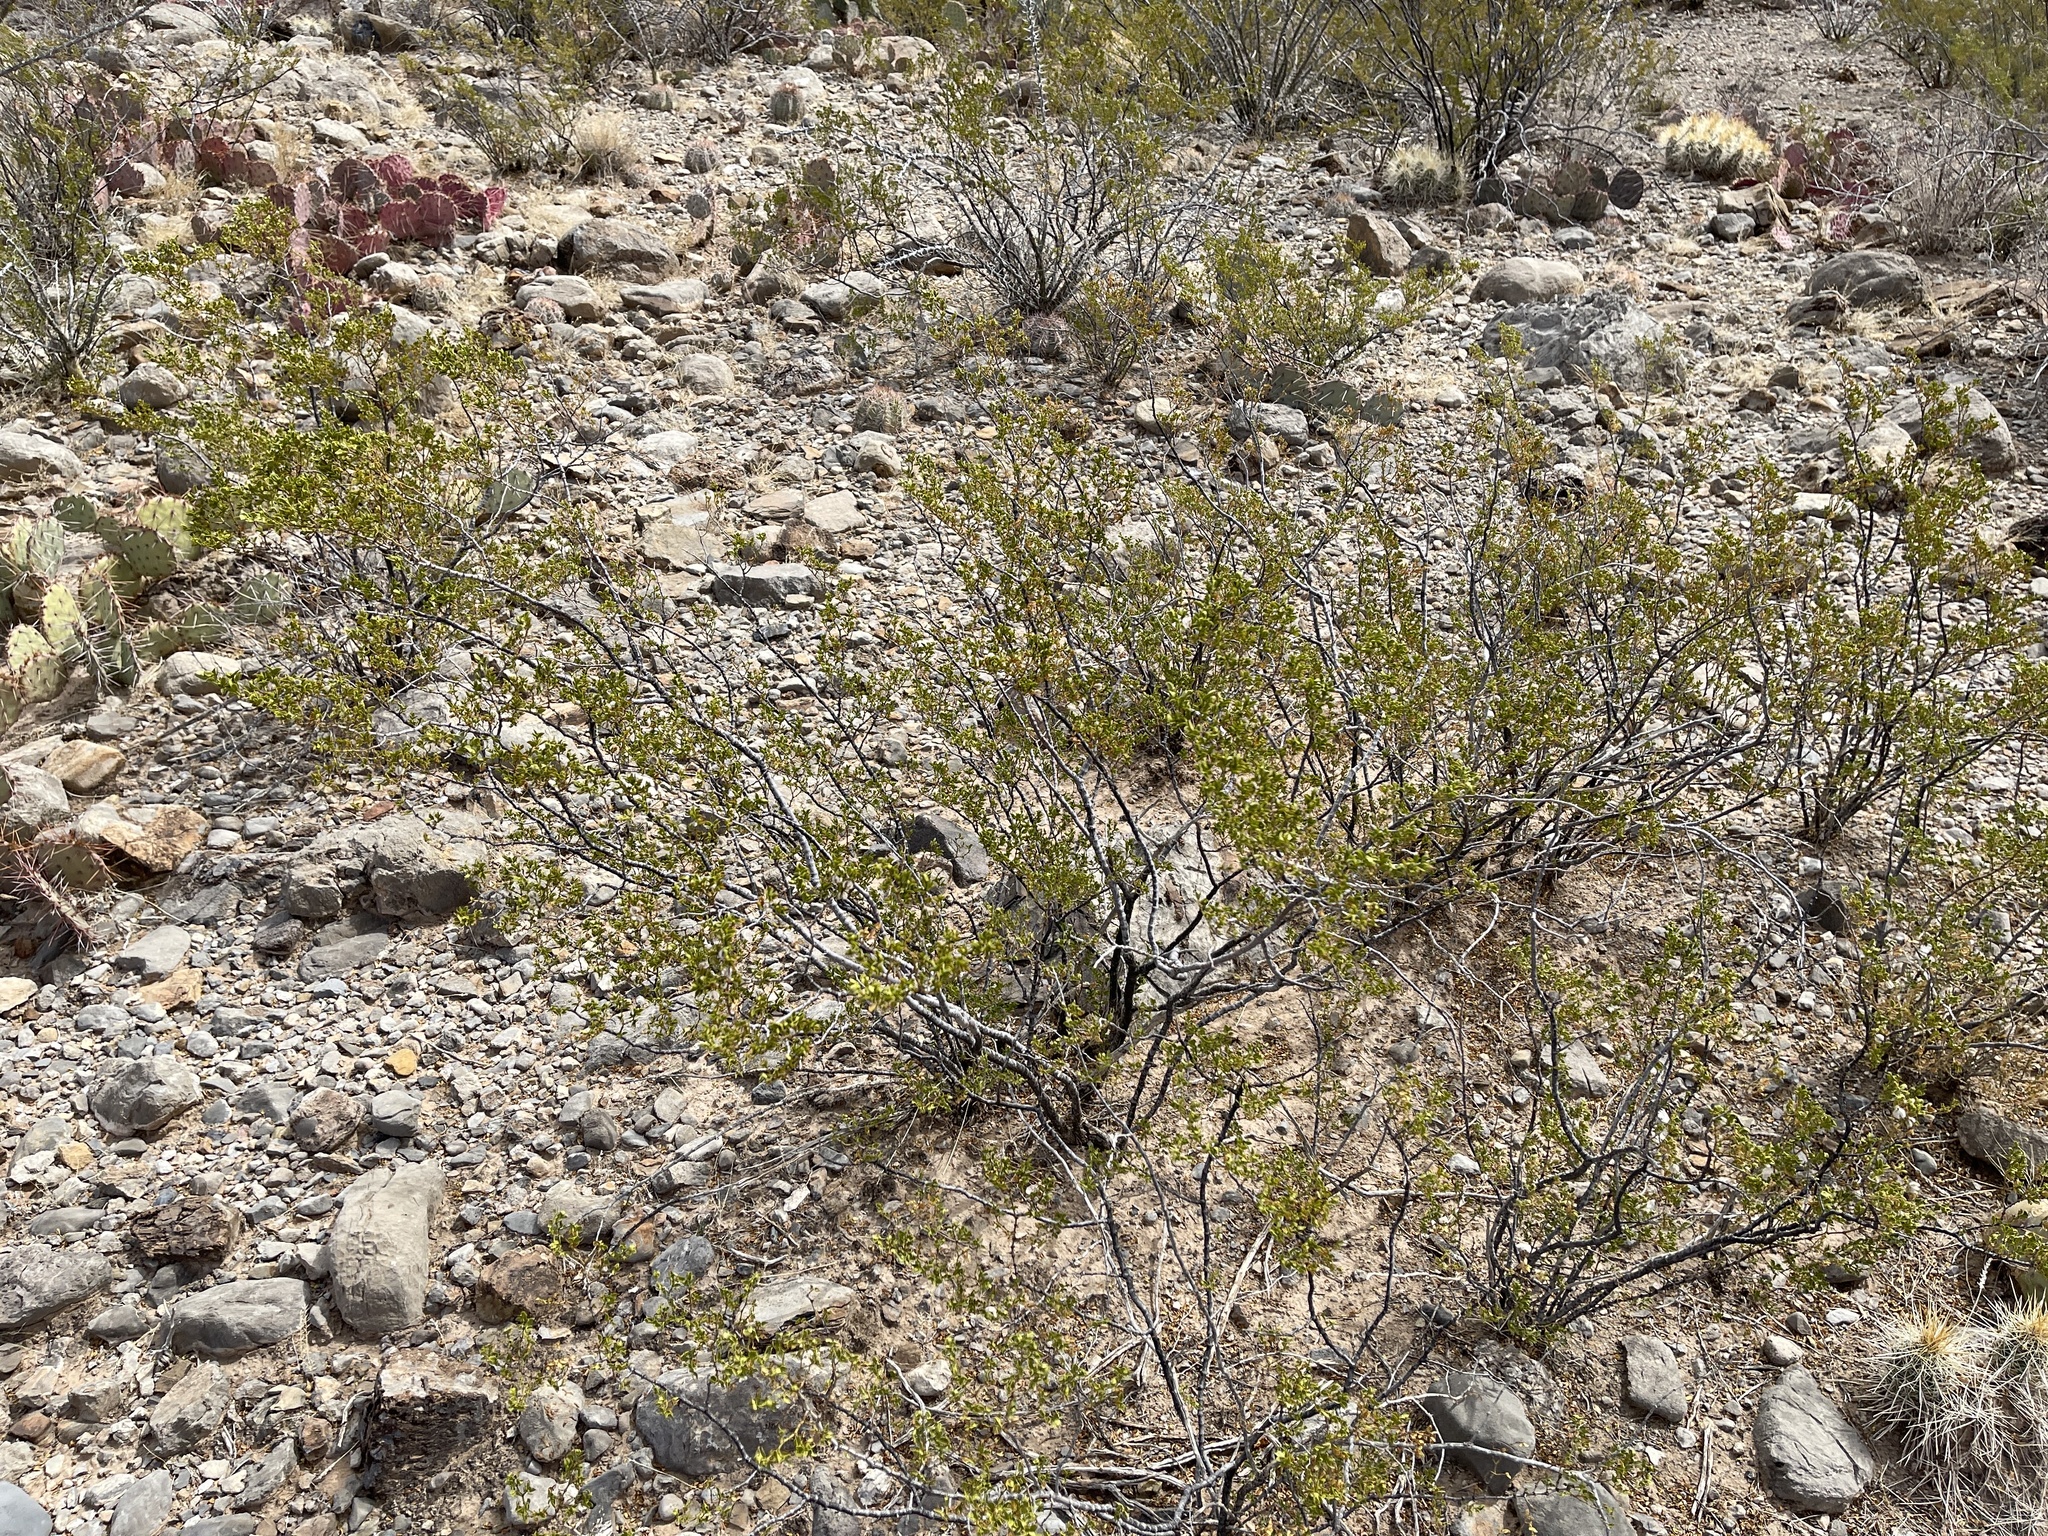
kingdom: Plantae
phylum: Tracheophyta
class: Magnoliopsida
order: Zygophyllales
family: Zygophyllaceae
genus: Larrea
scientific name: Larrea tridentata
